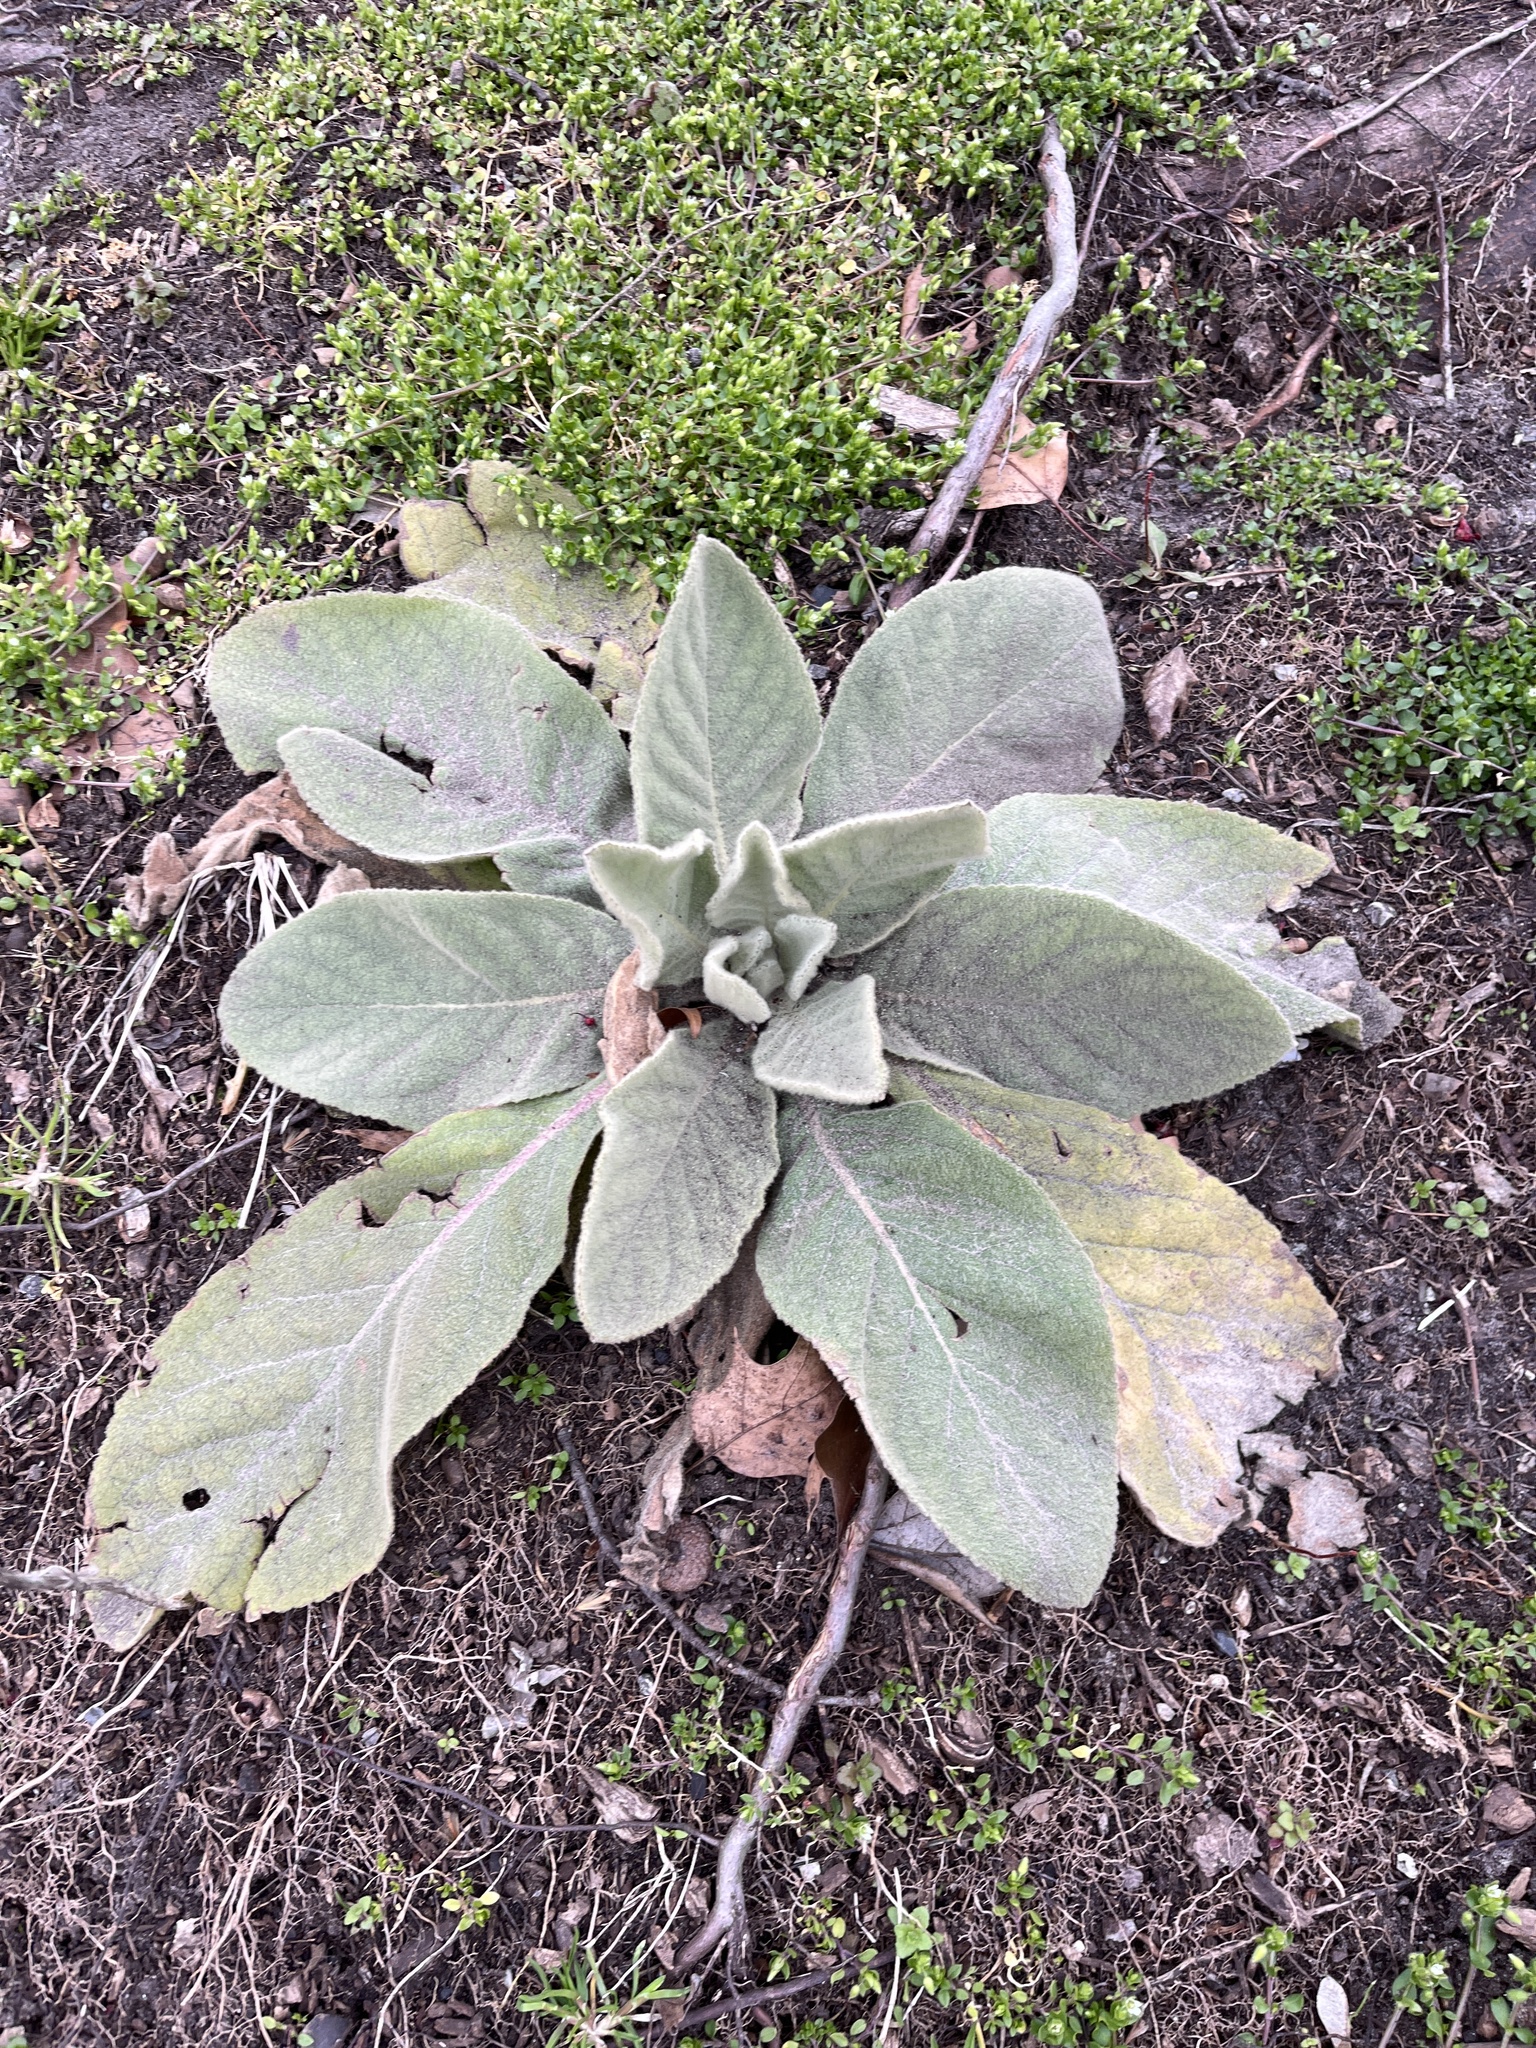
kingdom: Plantae
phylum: Tracheophyta
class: Magnoliopsida
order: Lamiales
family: Scrophulariaceae
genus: Verbascum
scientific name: Verbascum thapsus
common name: Common mullein
